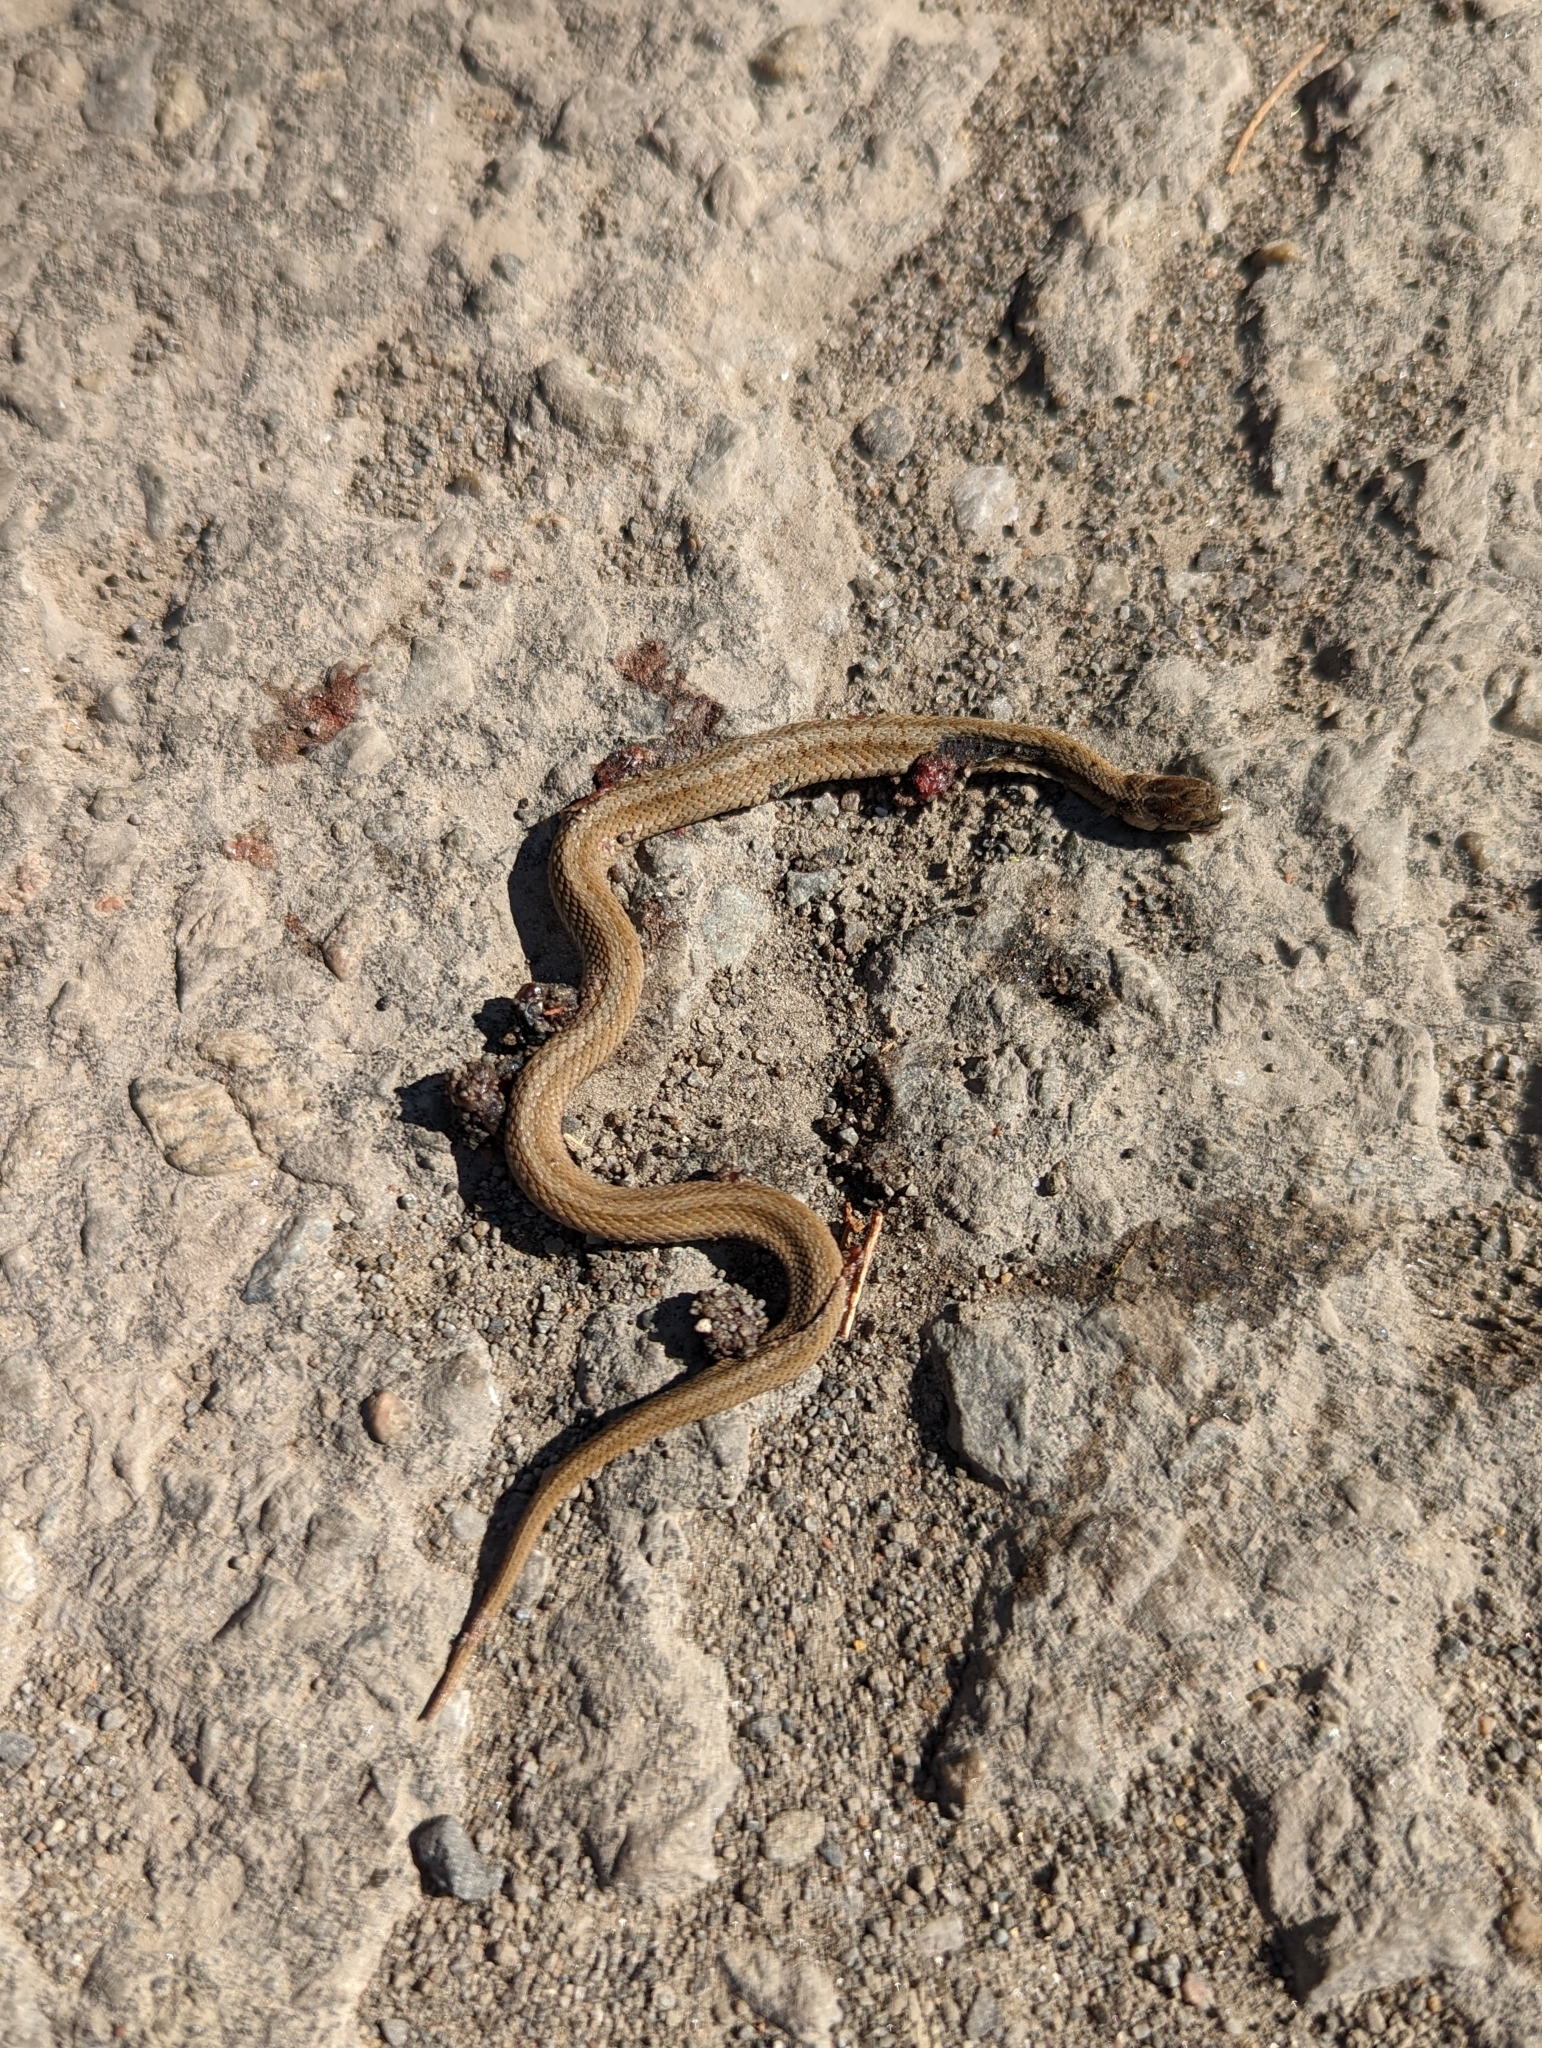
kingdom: Animalia
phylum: Chordata
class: Squamata
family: Colubridae
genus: Storeria
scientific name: Storeria dekayi
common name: (dekay’s) brown snake
